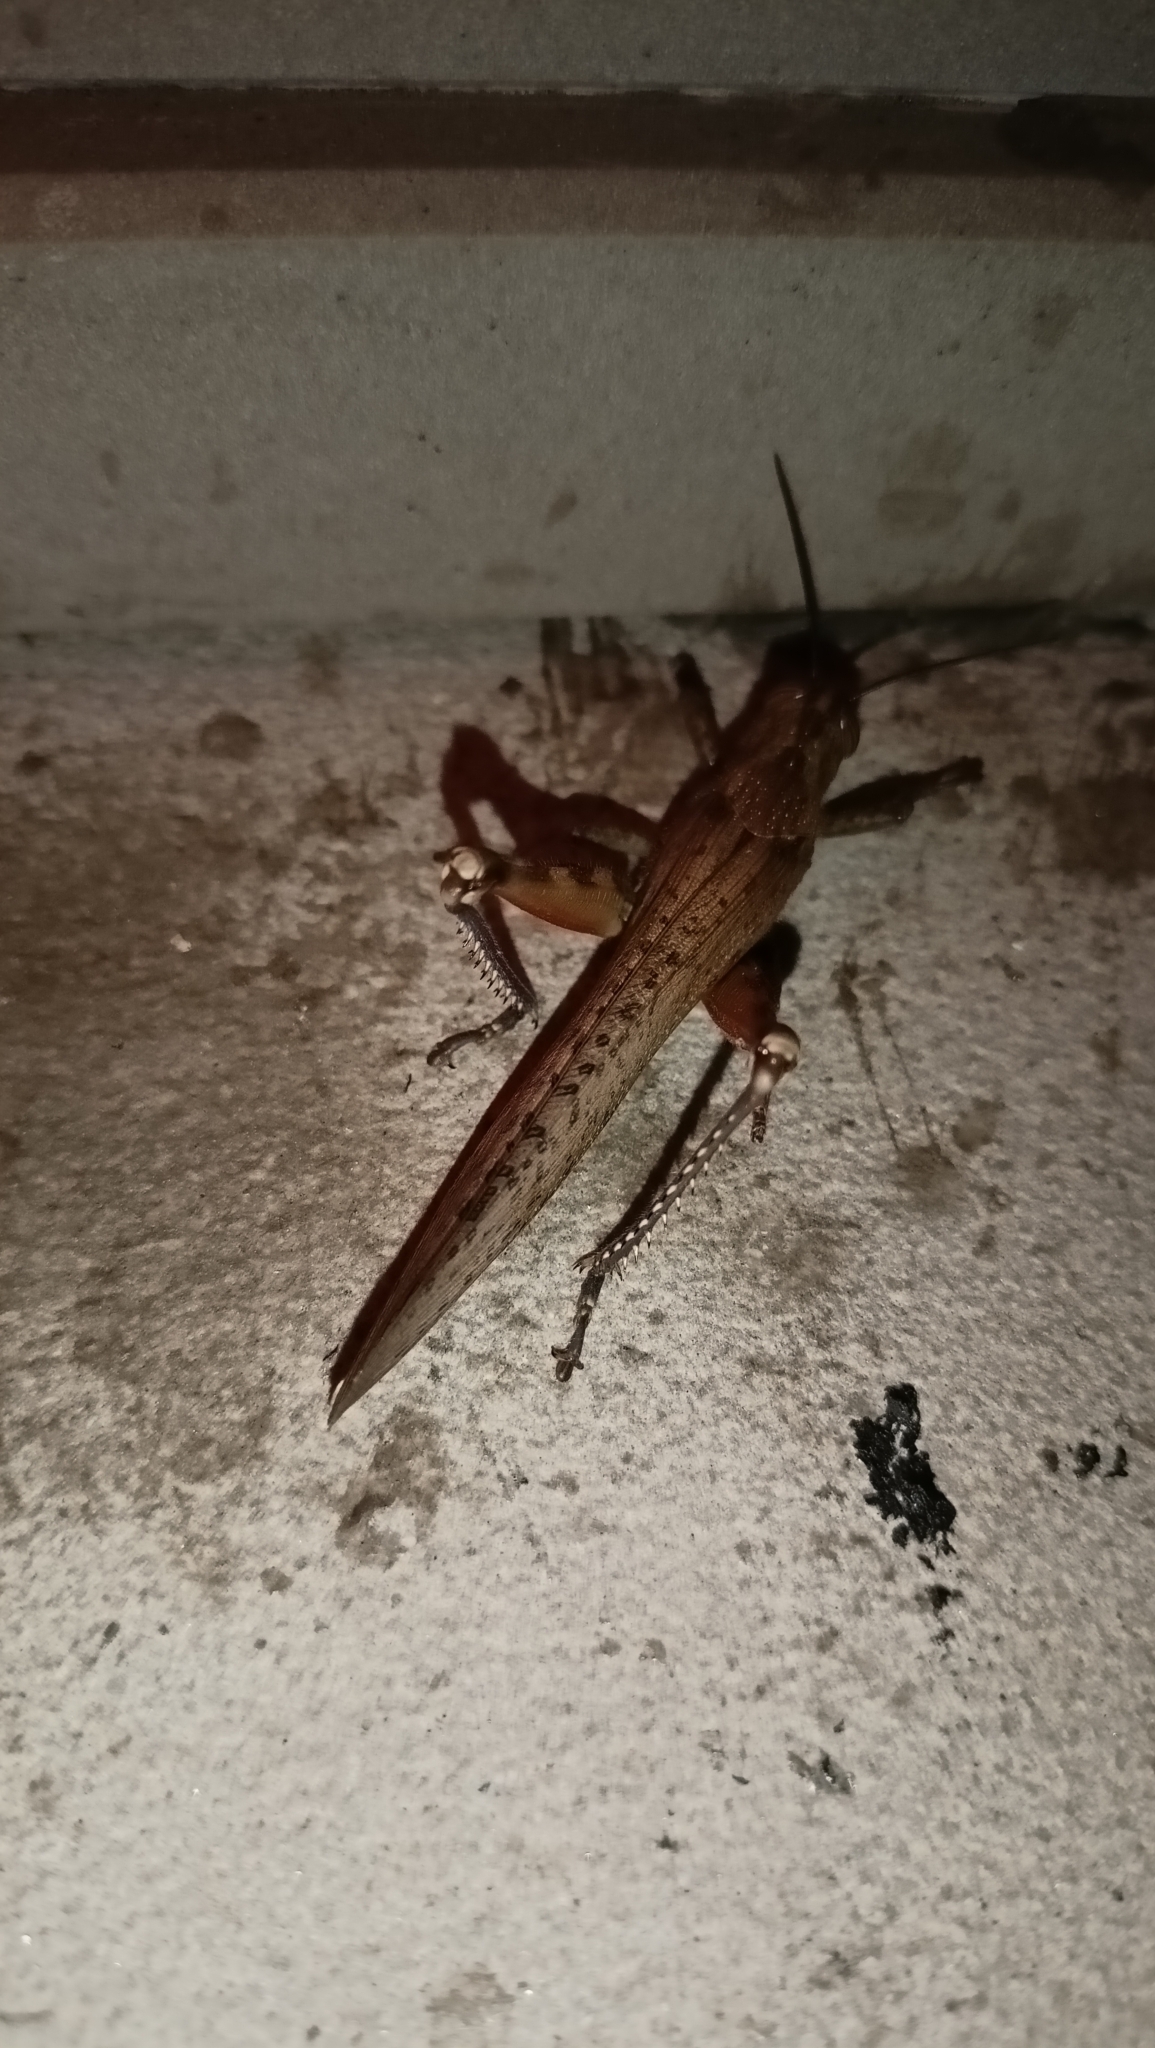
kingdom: Animalia
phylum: Arthropoda
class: Insecta
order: Orthoptera
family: Acrididae
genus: Anacridium
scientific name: Anacridium aegyptium
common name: Egyptian grasshopper
